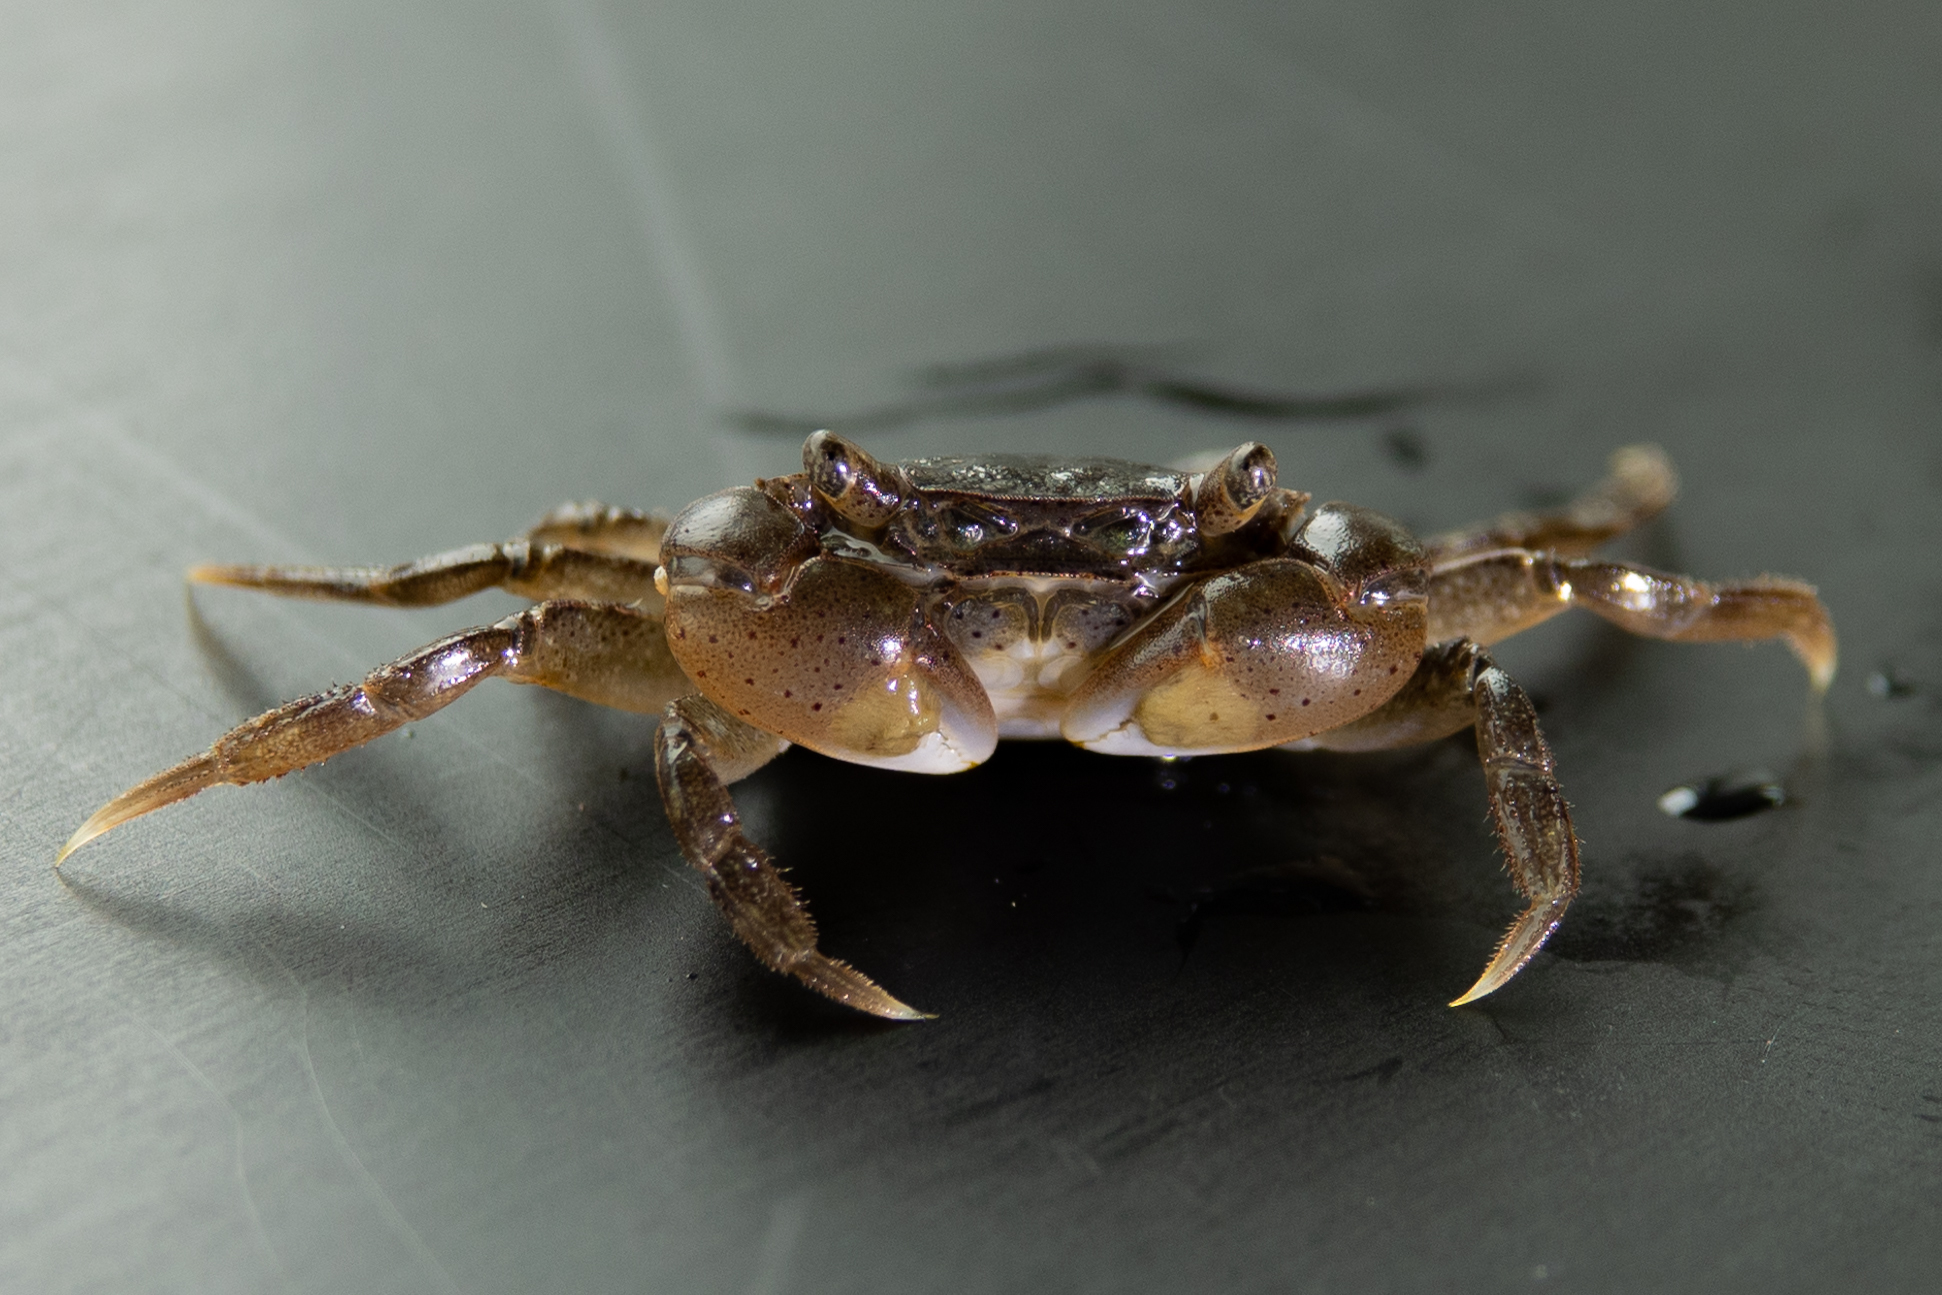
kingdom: Animalia
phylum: Arthropoda
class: Malacostraca
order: Decapoda
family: Varunidae
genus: Hemigrapsus
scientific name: Hemigrapsus takanoi
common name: Asian brush crab
